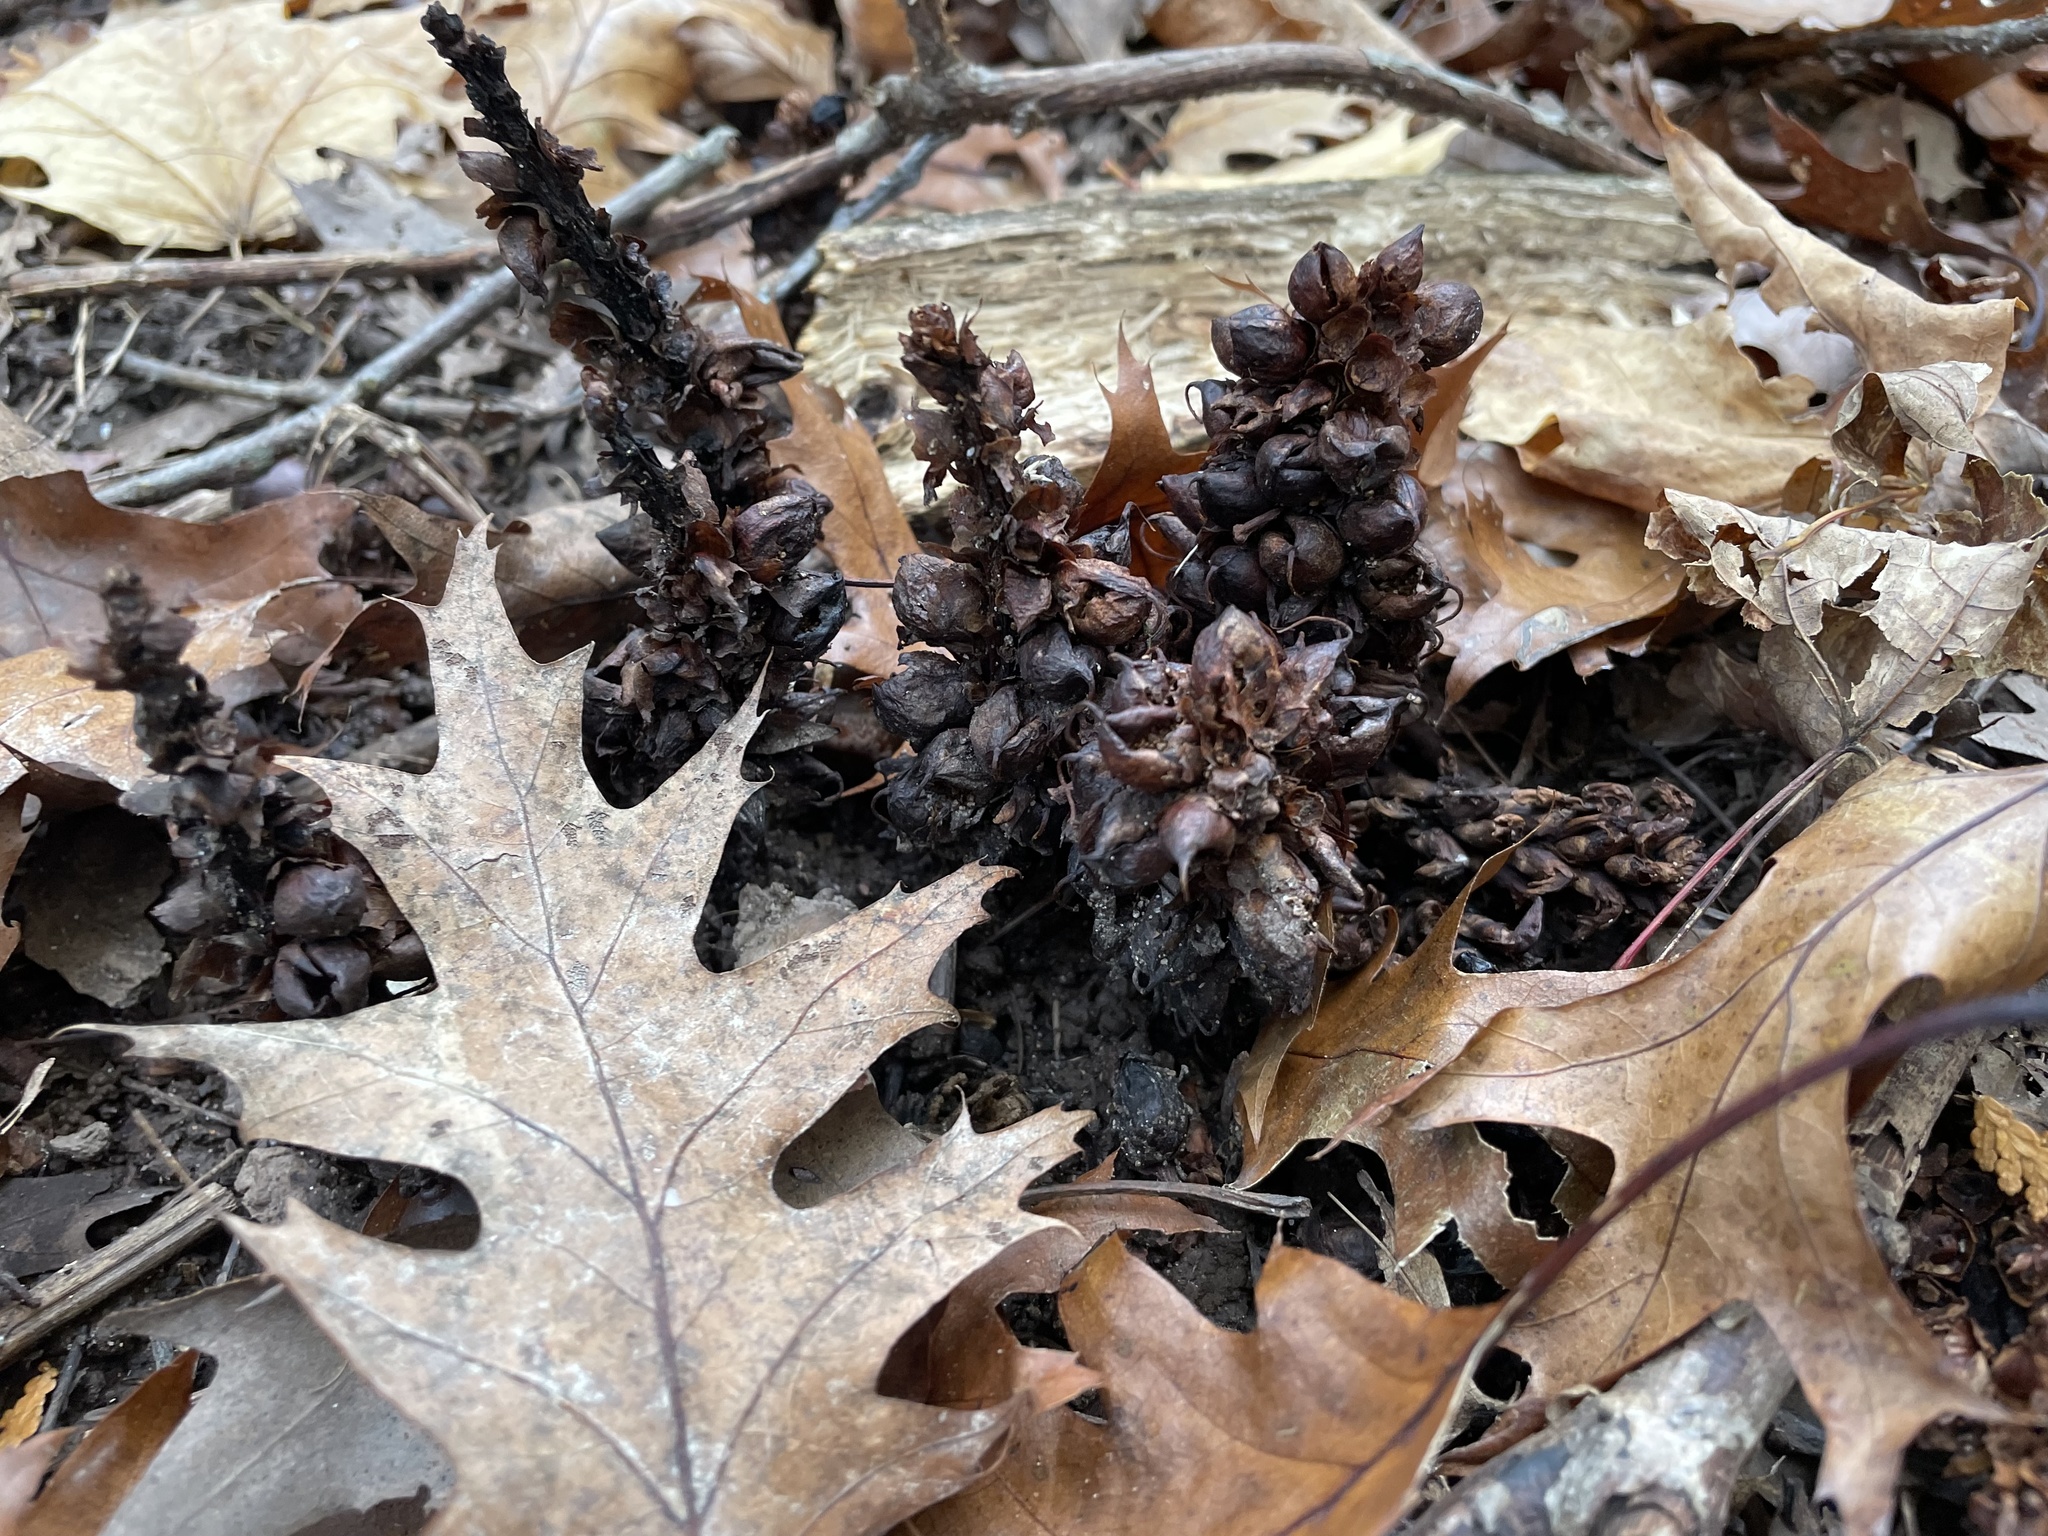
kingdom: Plantae
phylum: Tracheophyta
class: Magnoliopsida
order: Lamiales
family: Orobanchaceae
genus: Conopholis
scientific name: Conopholis americana
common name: American cancer-root
